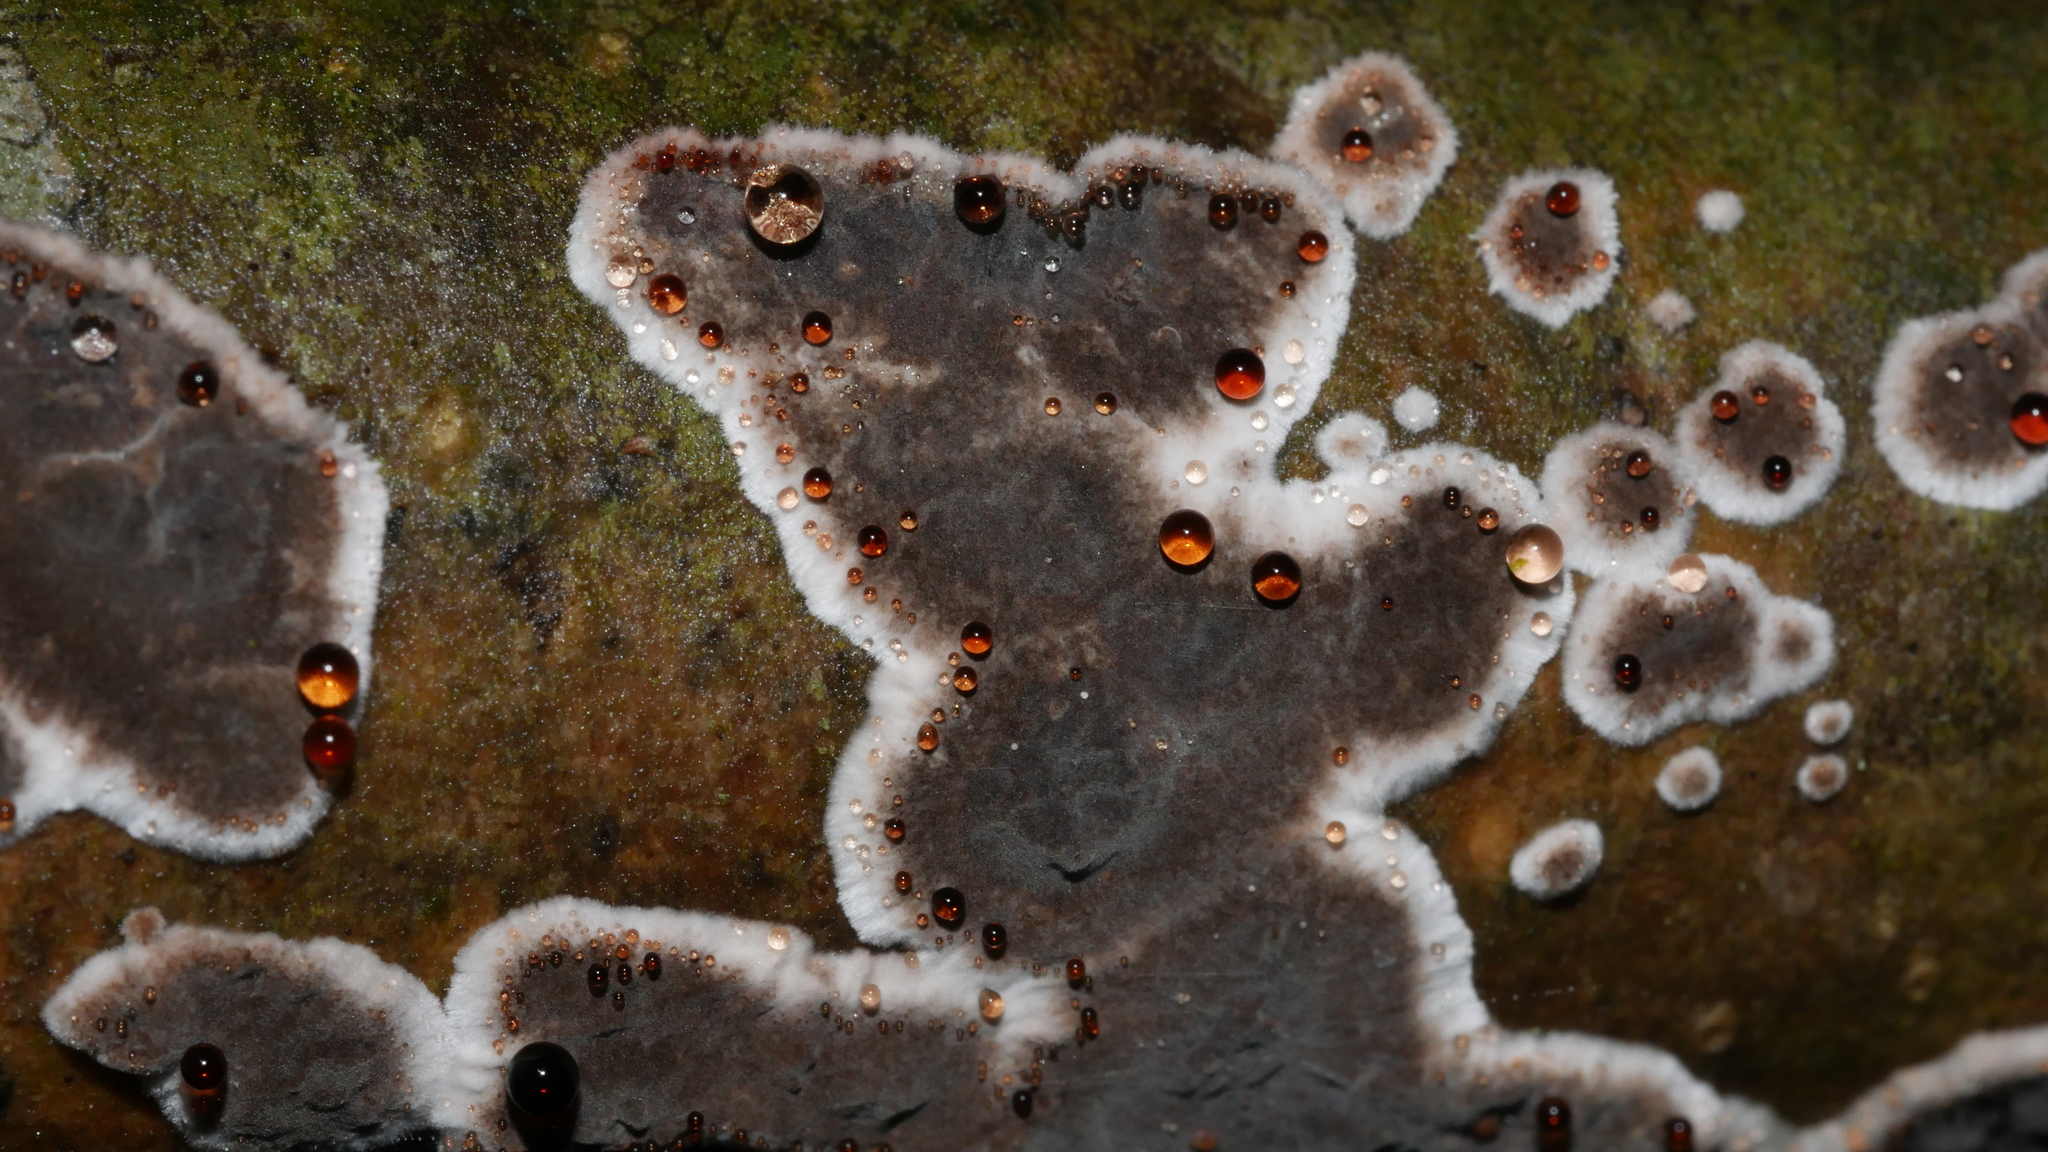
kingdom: Fungi
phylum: Basidiomycota
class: Agaricomycetes
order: Russulales
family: Peniophoraceae
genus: Peniophora
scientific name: Peniophora albobadia
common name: Giraffe spots
